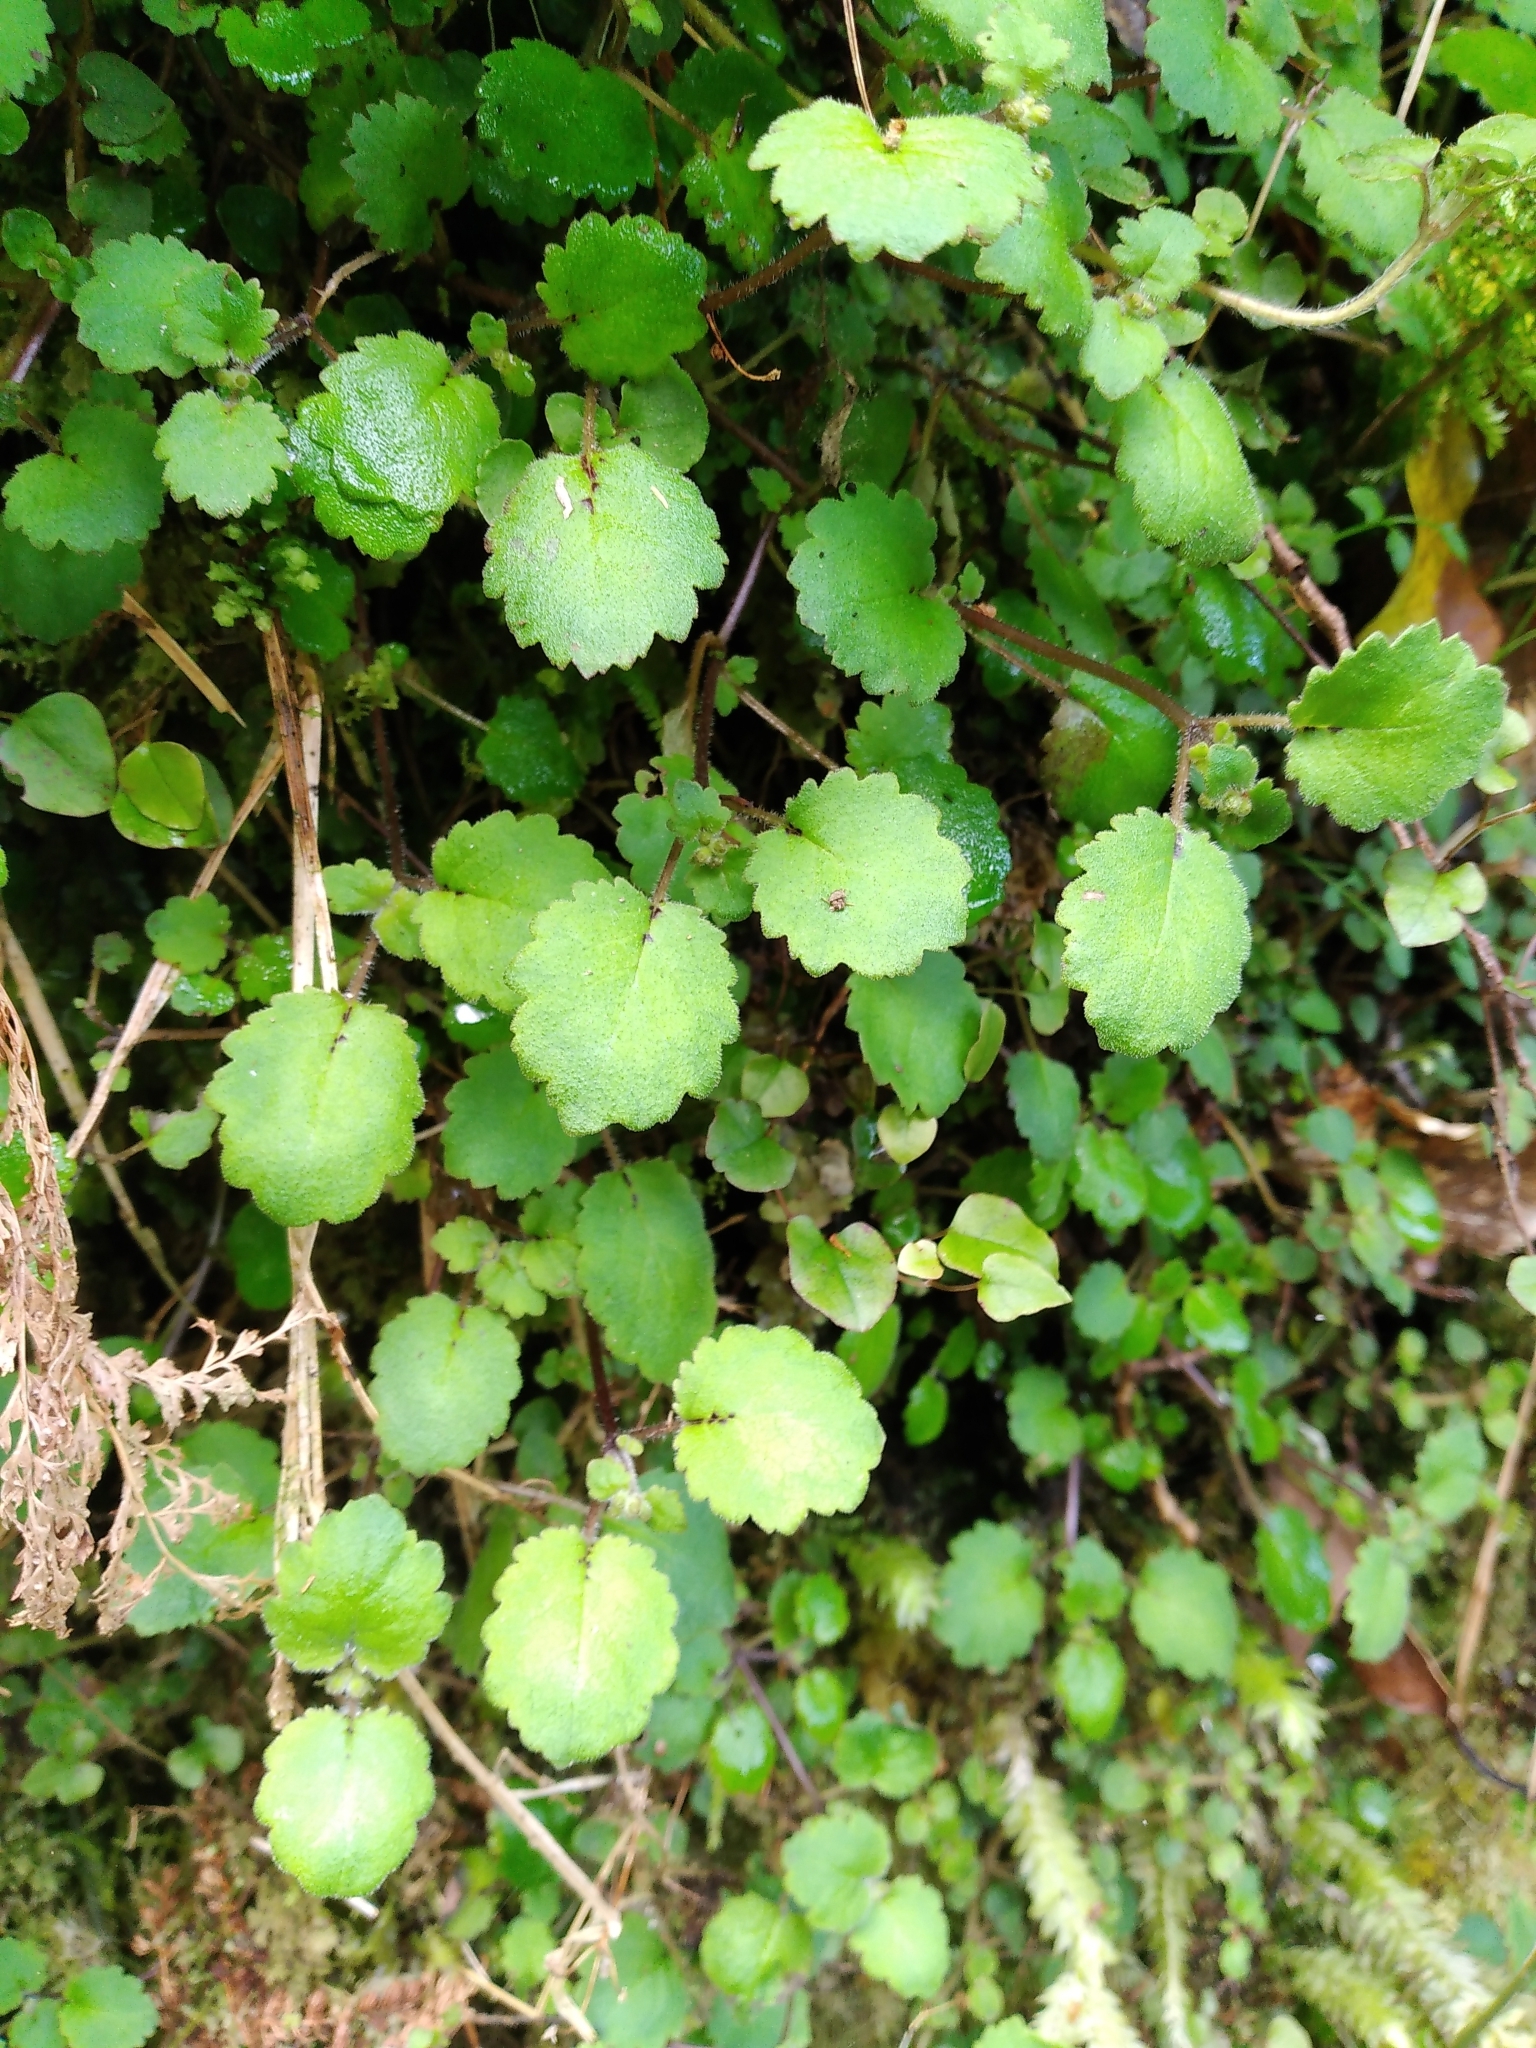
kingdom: Plantae
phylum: Tracheophyta
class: Magnoliopsida
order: Lamiales
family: Calceolariaceae
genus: Jovellana
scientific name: Jovellana repens
